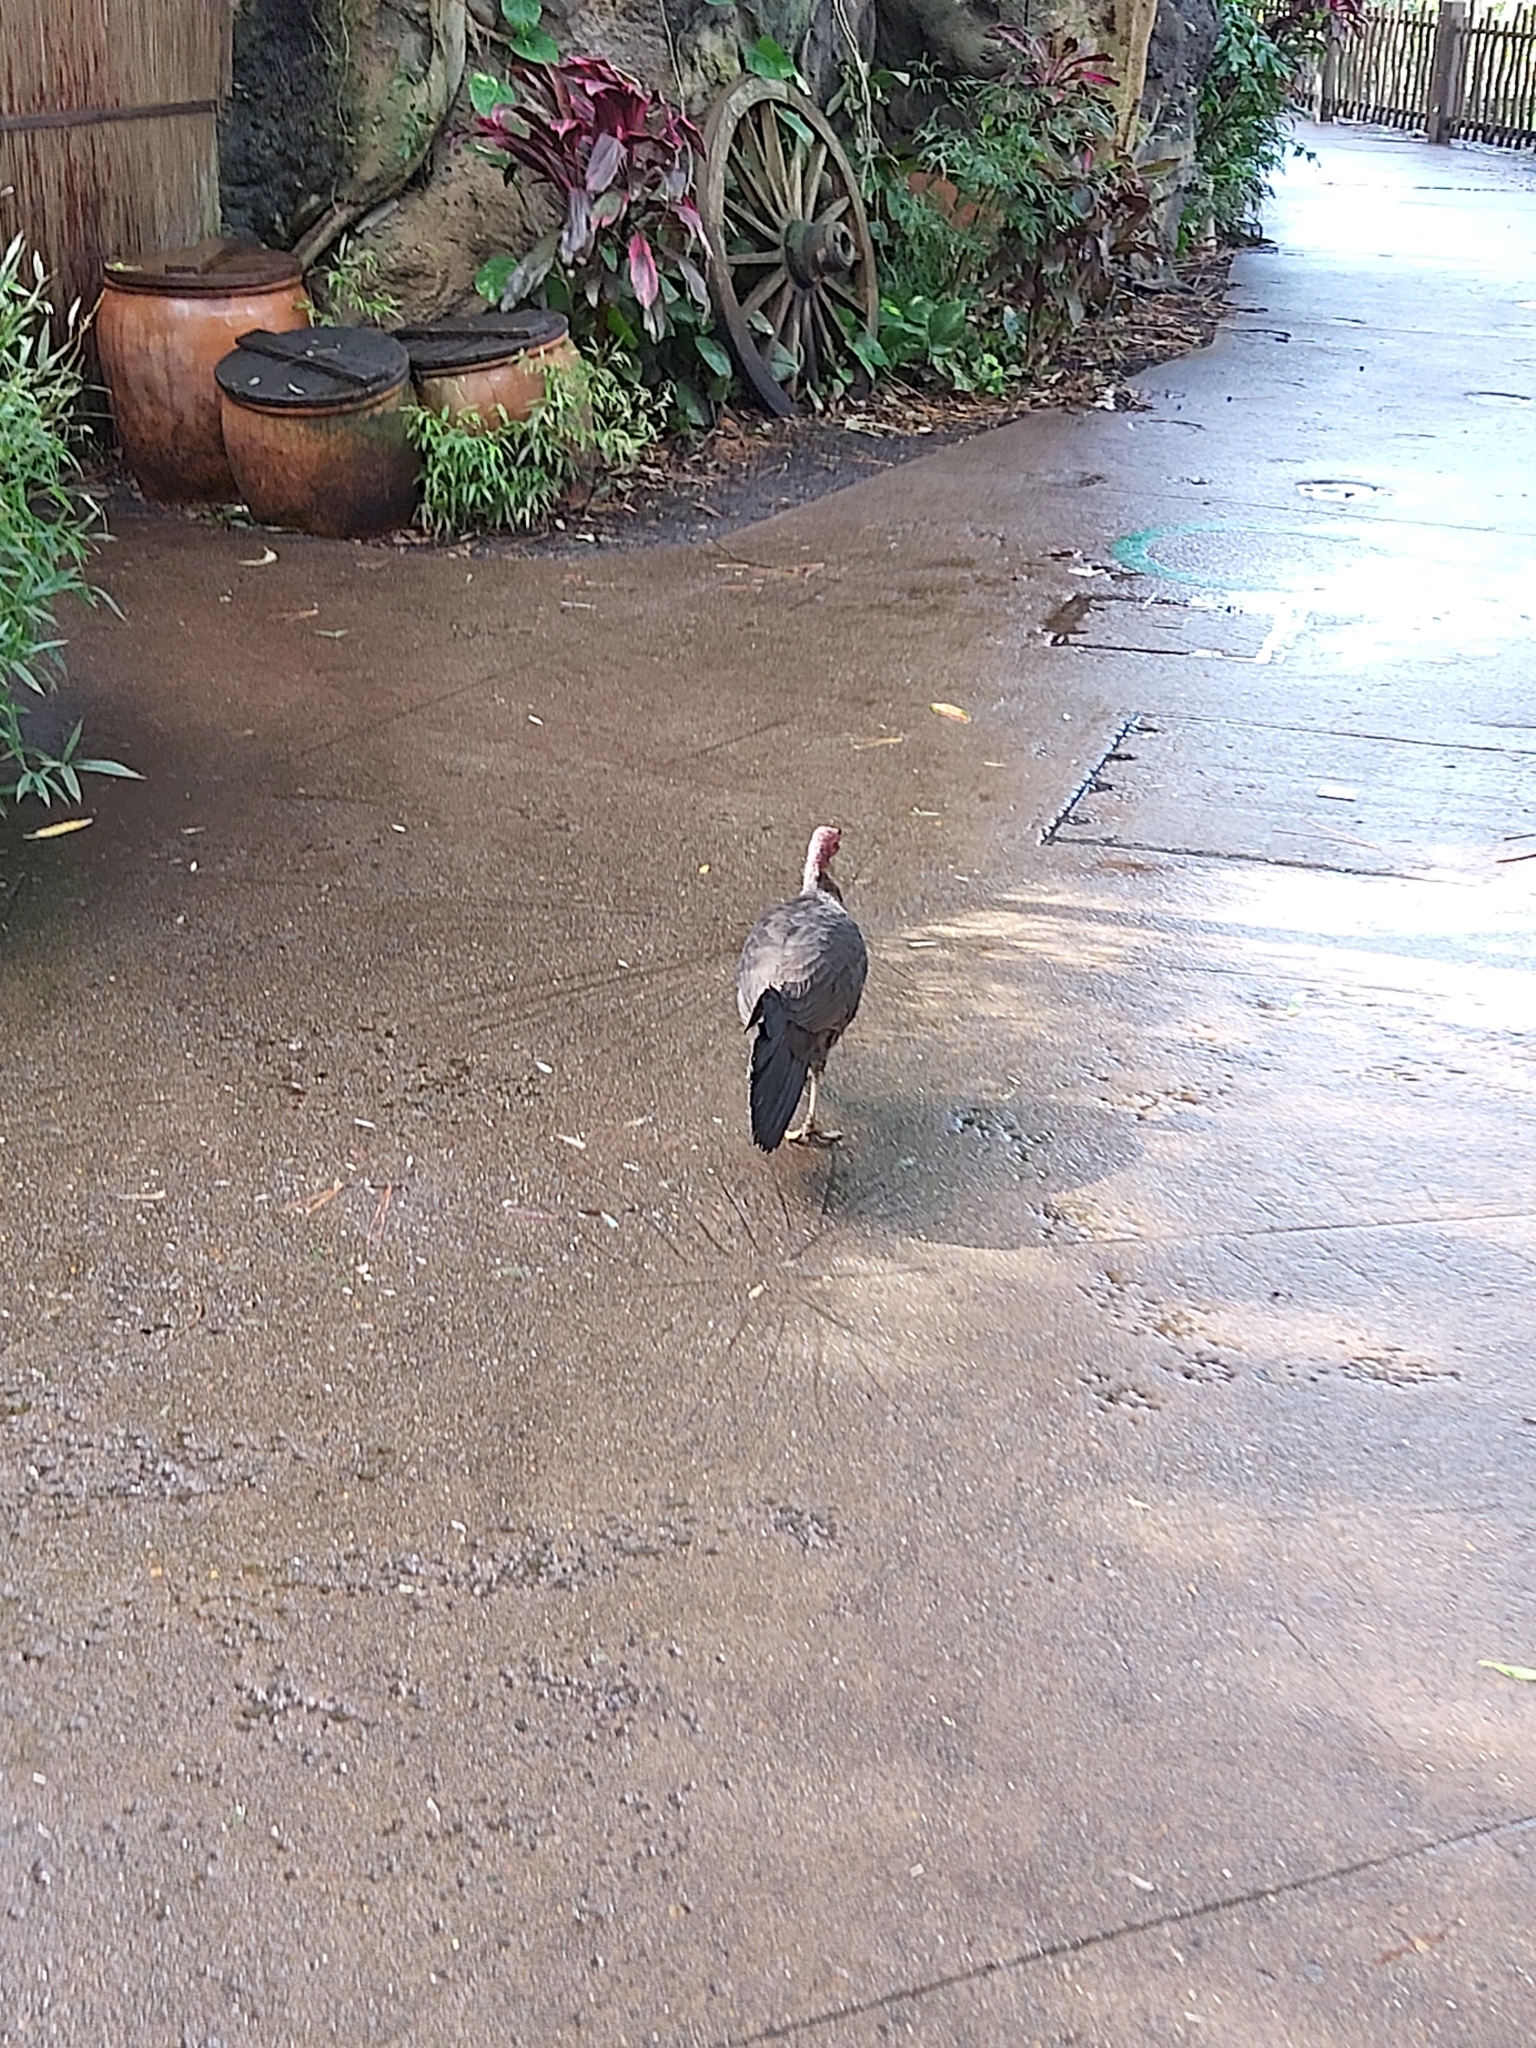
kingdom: Animalia
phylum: Chordata
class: Aves
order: Galliformes
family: Megapodiidae
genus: Alectura
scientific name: Alectura lathami
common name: Australian brushturkey
